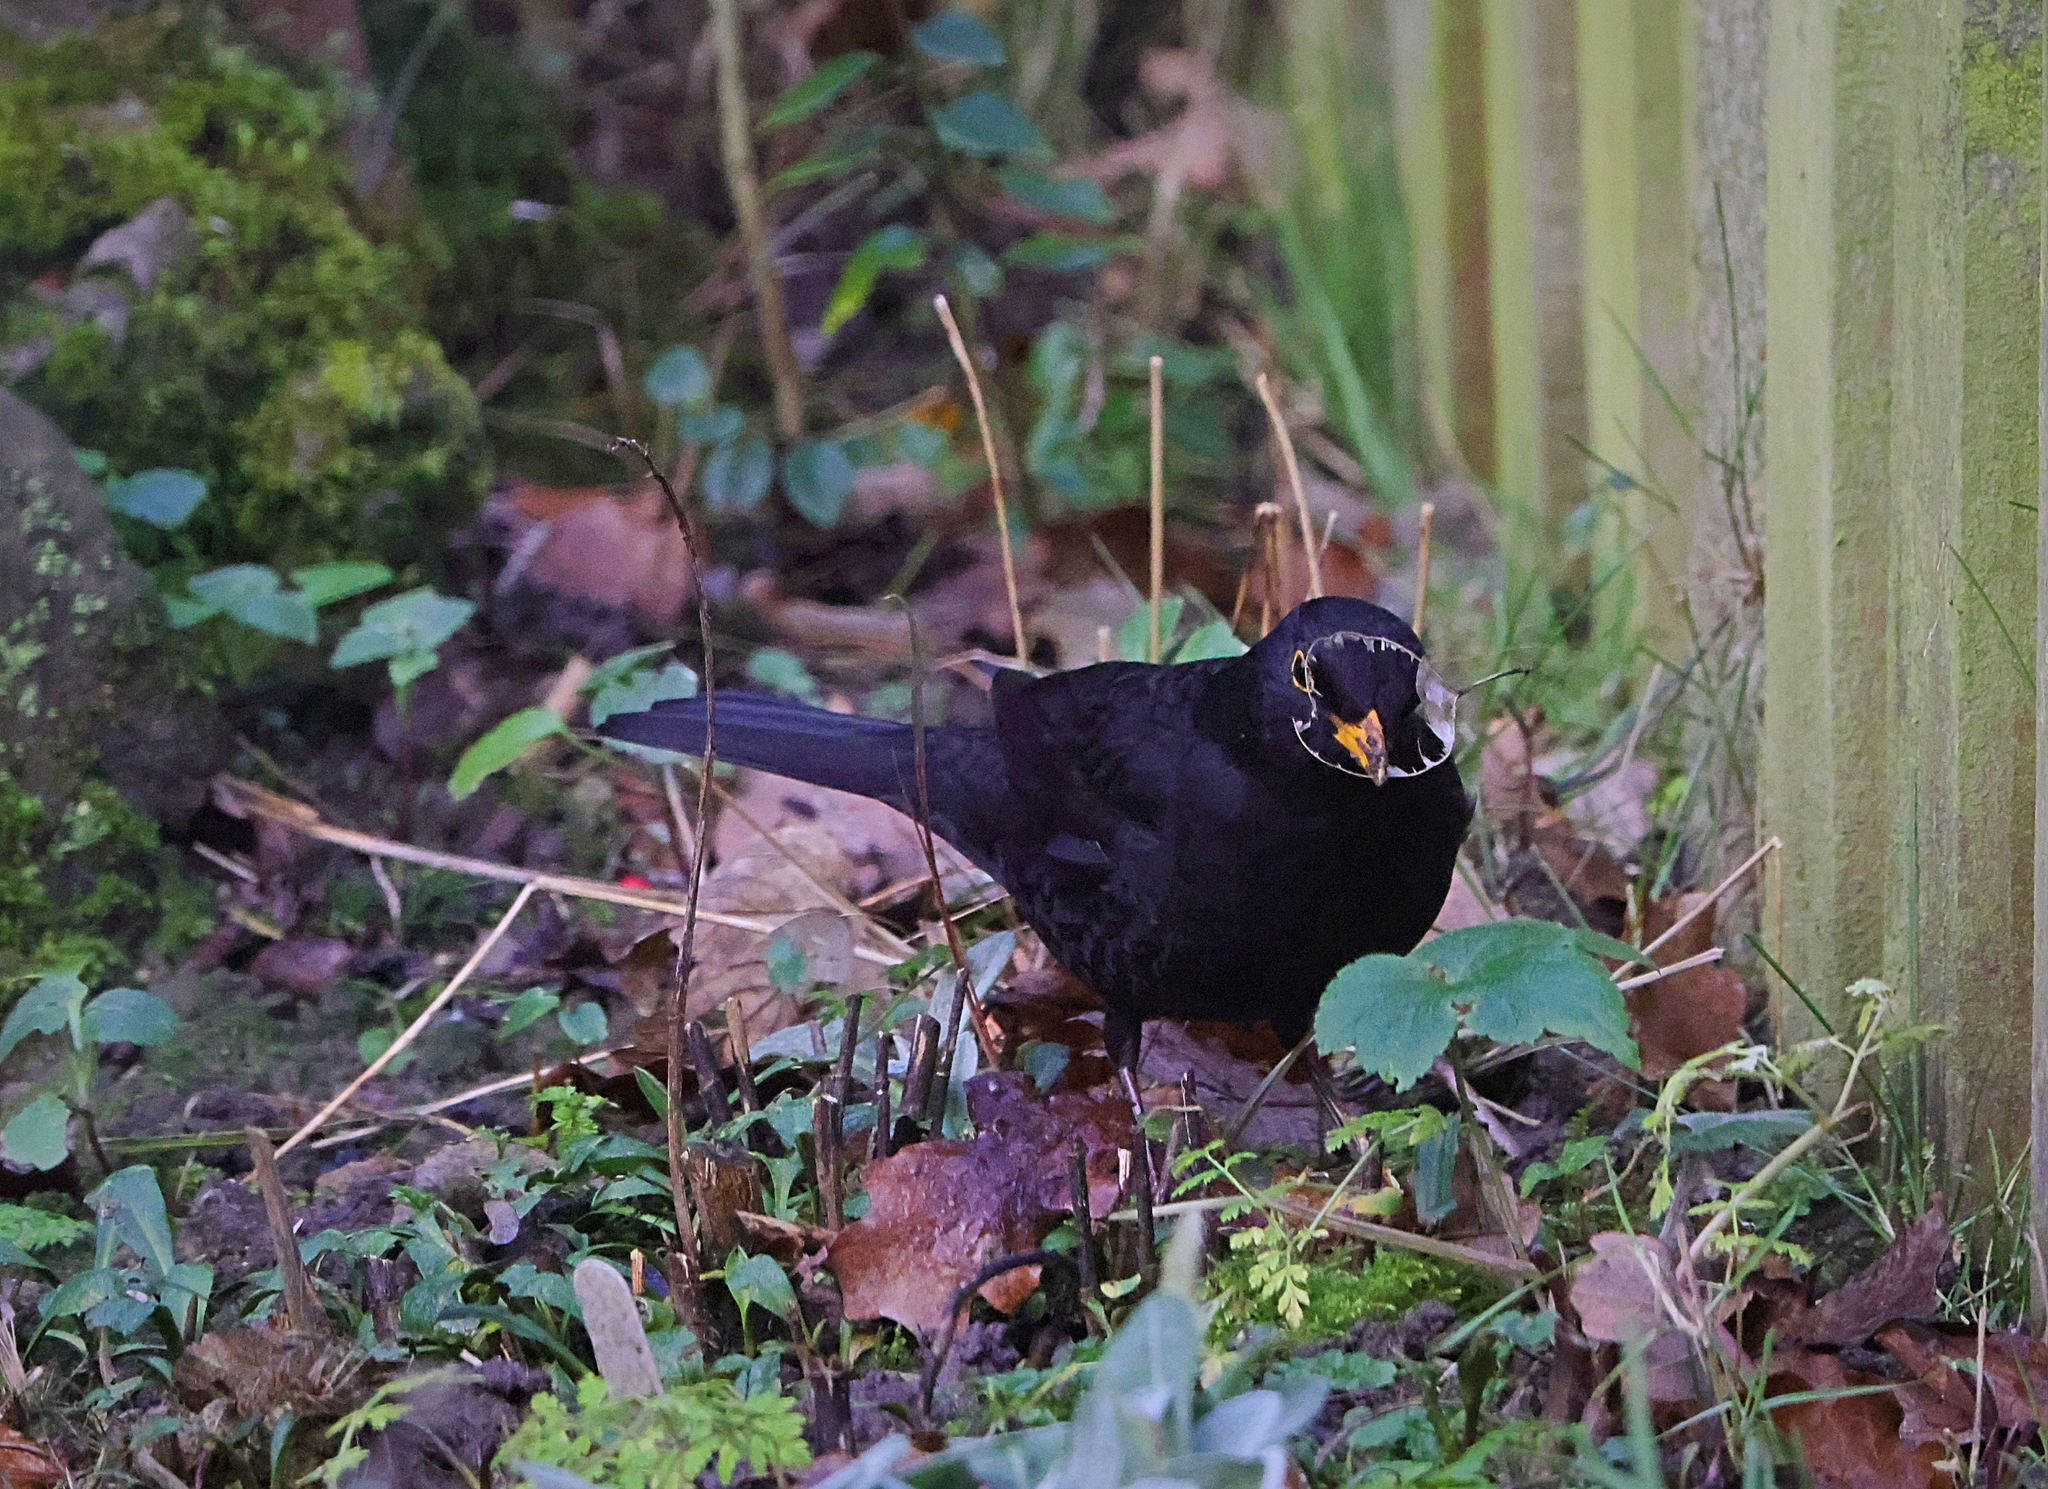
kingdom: Animalia
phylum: Chordata
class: Aves
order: Passeriformes
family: Turdidae
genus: Turdus
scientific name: Turdus merula
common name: Common blackbird
